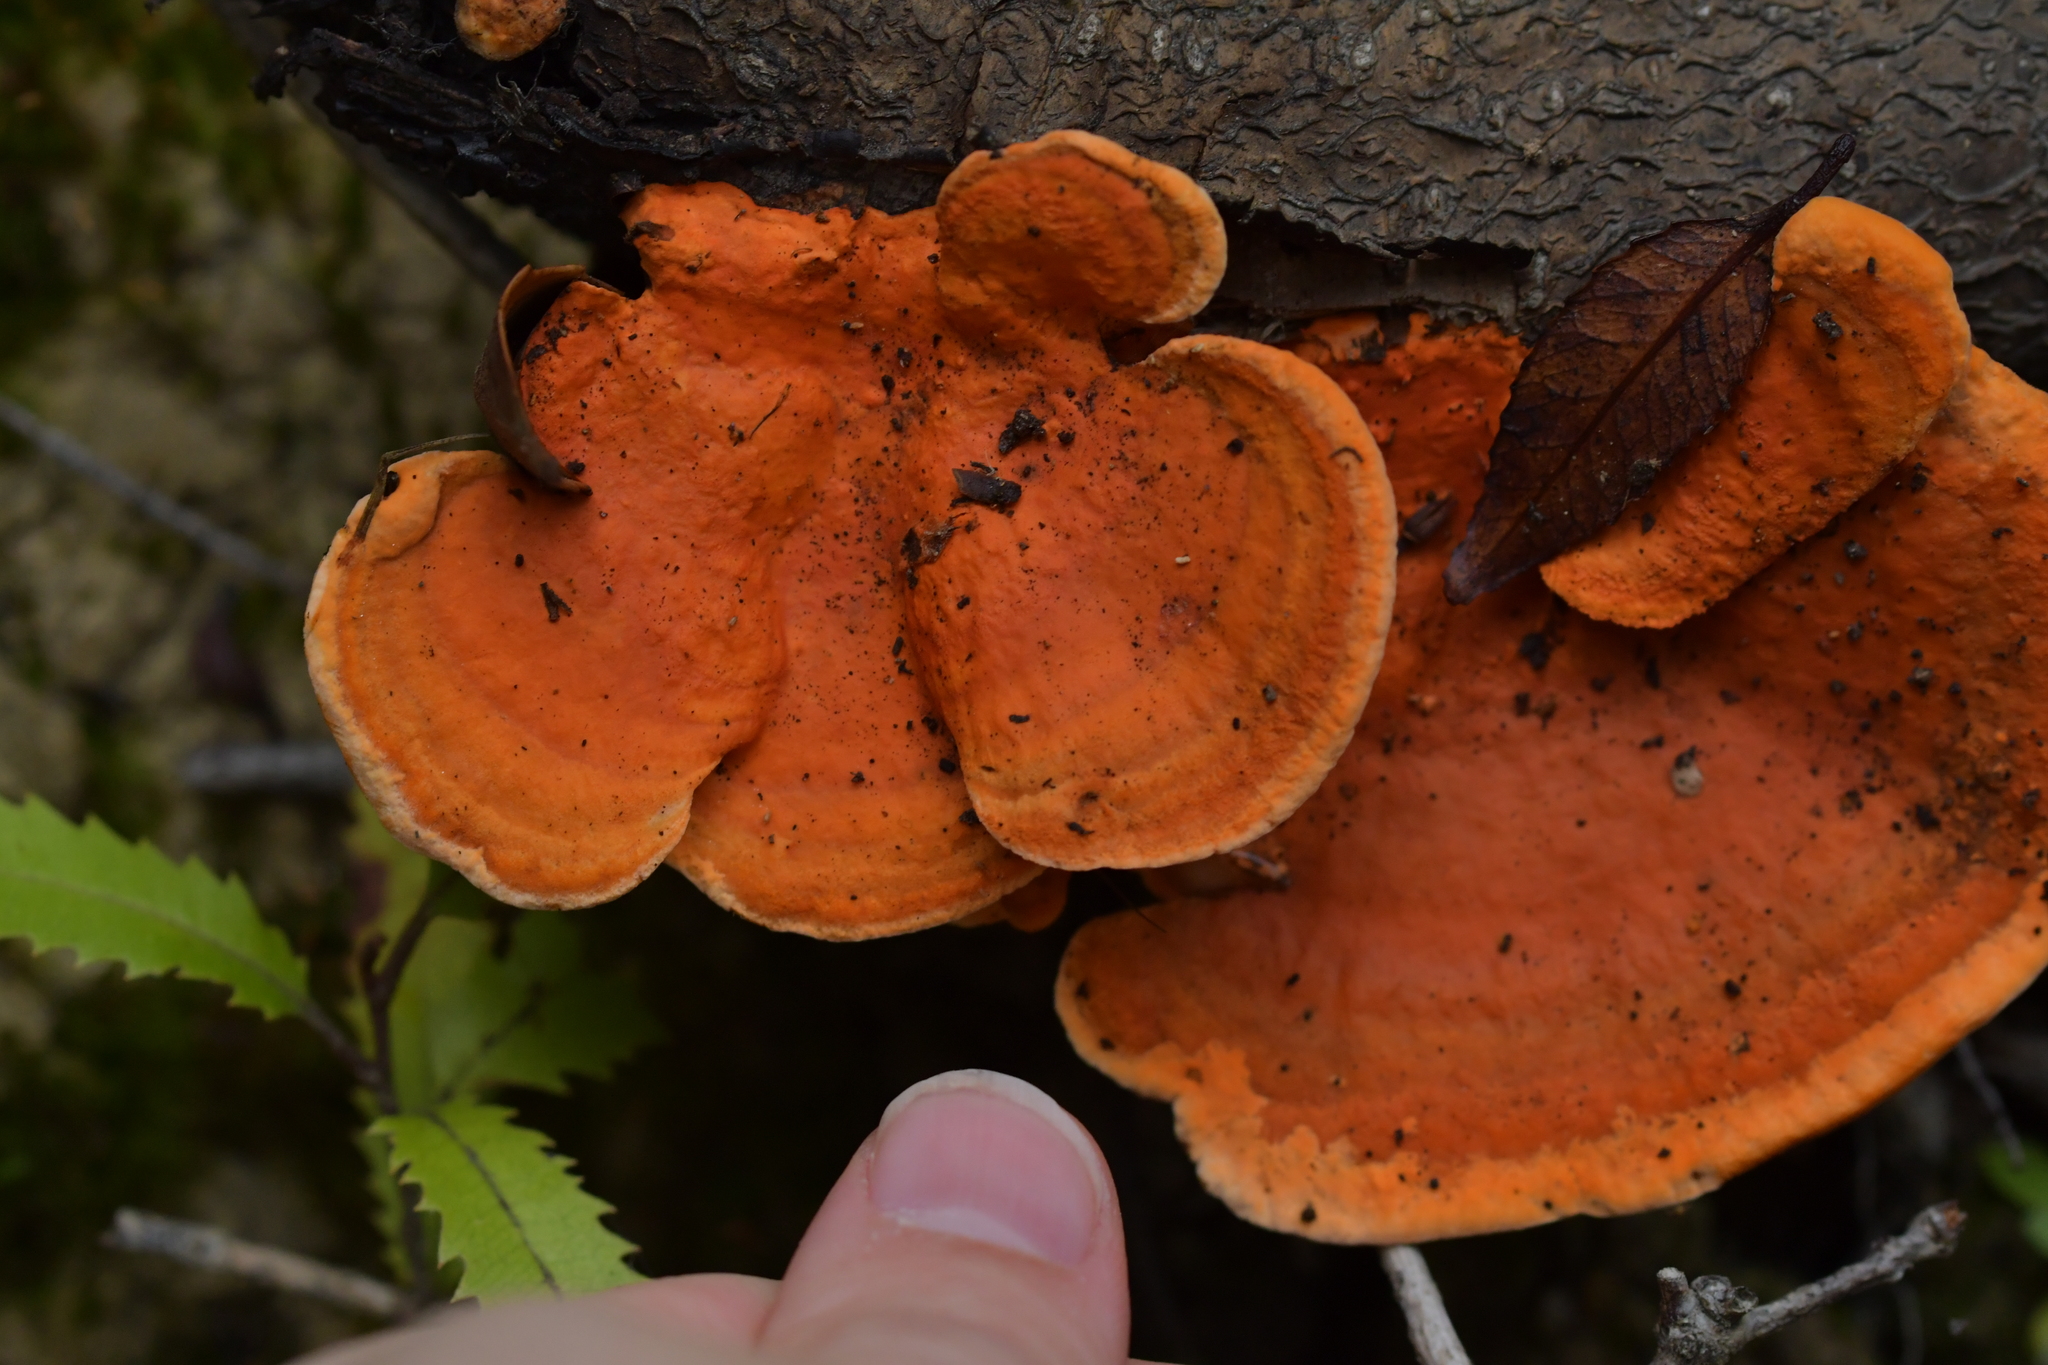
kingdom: Fungi
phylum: Basidiomycota
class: Agaricomycetes
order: Polyporales
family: Polyporaceae
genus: Trametes
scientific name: Trametes coccinea
